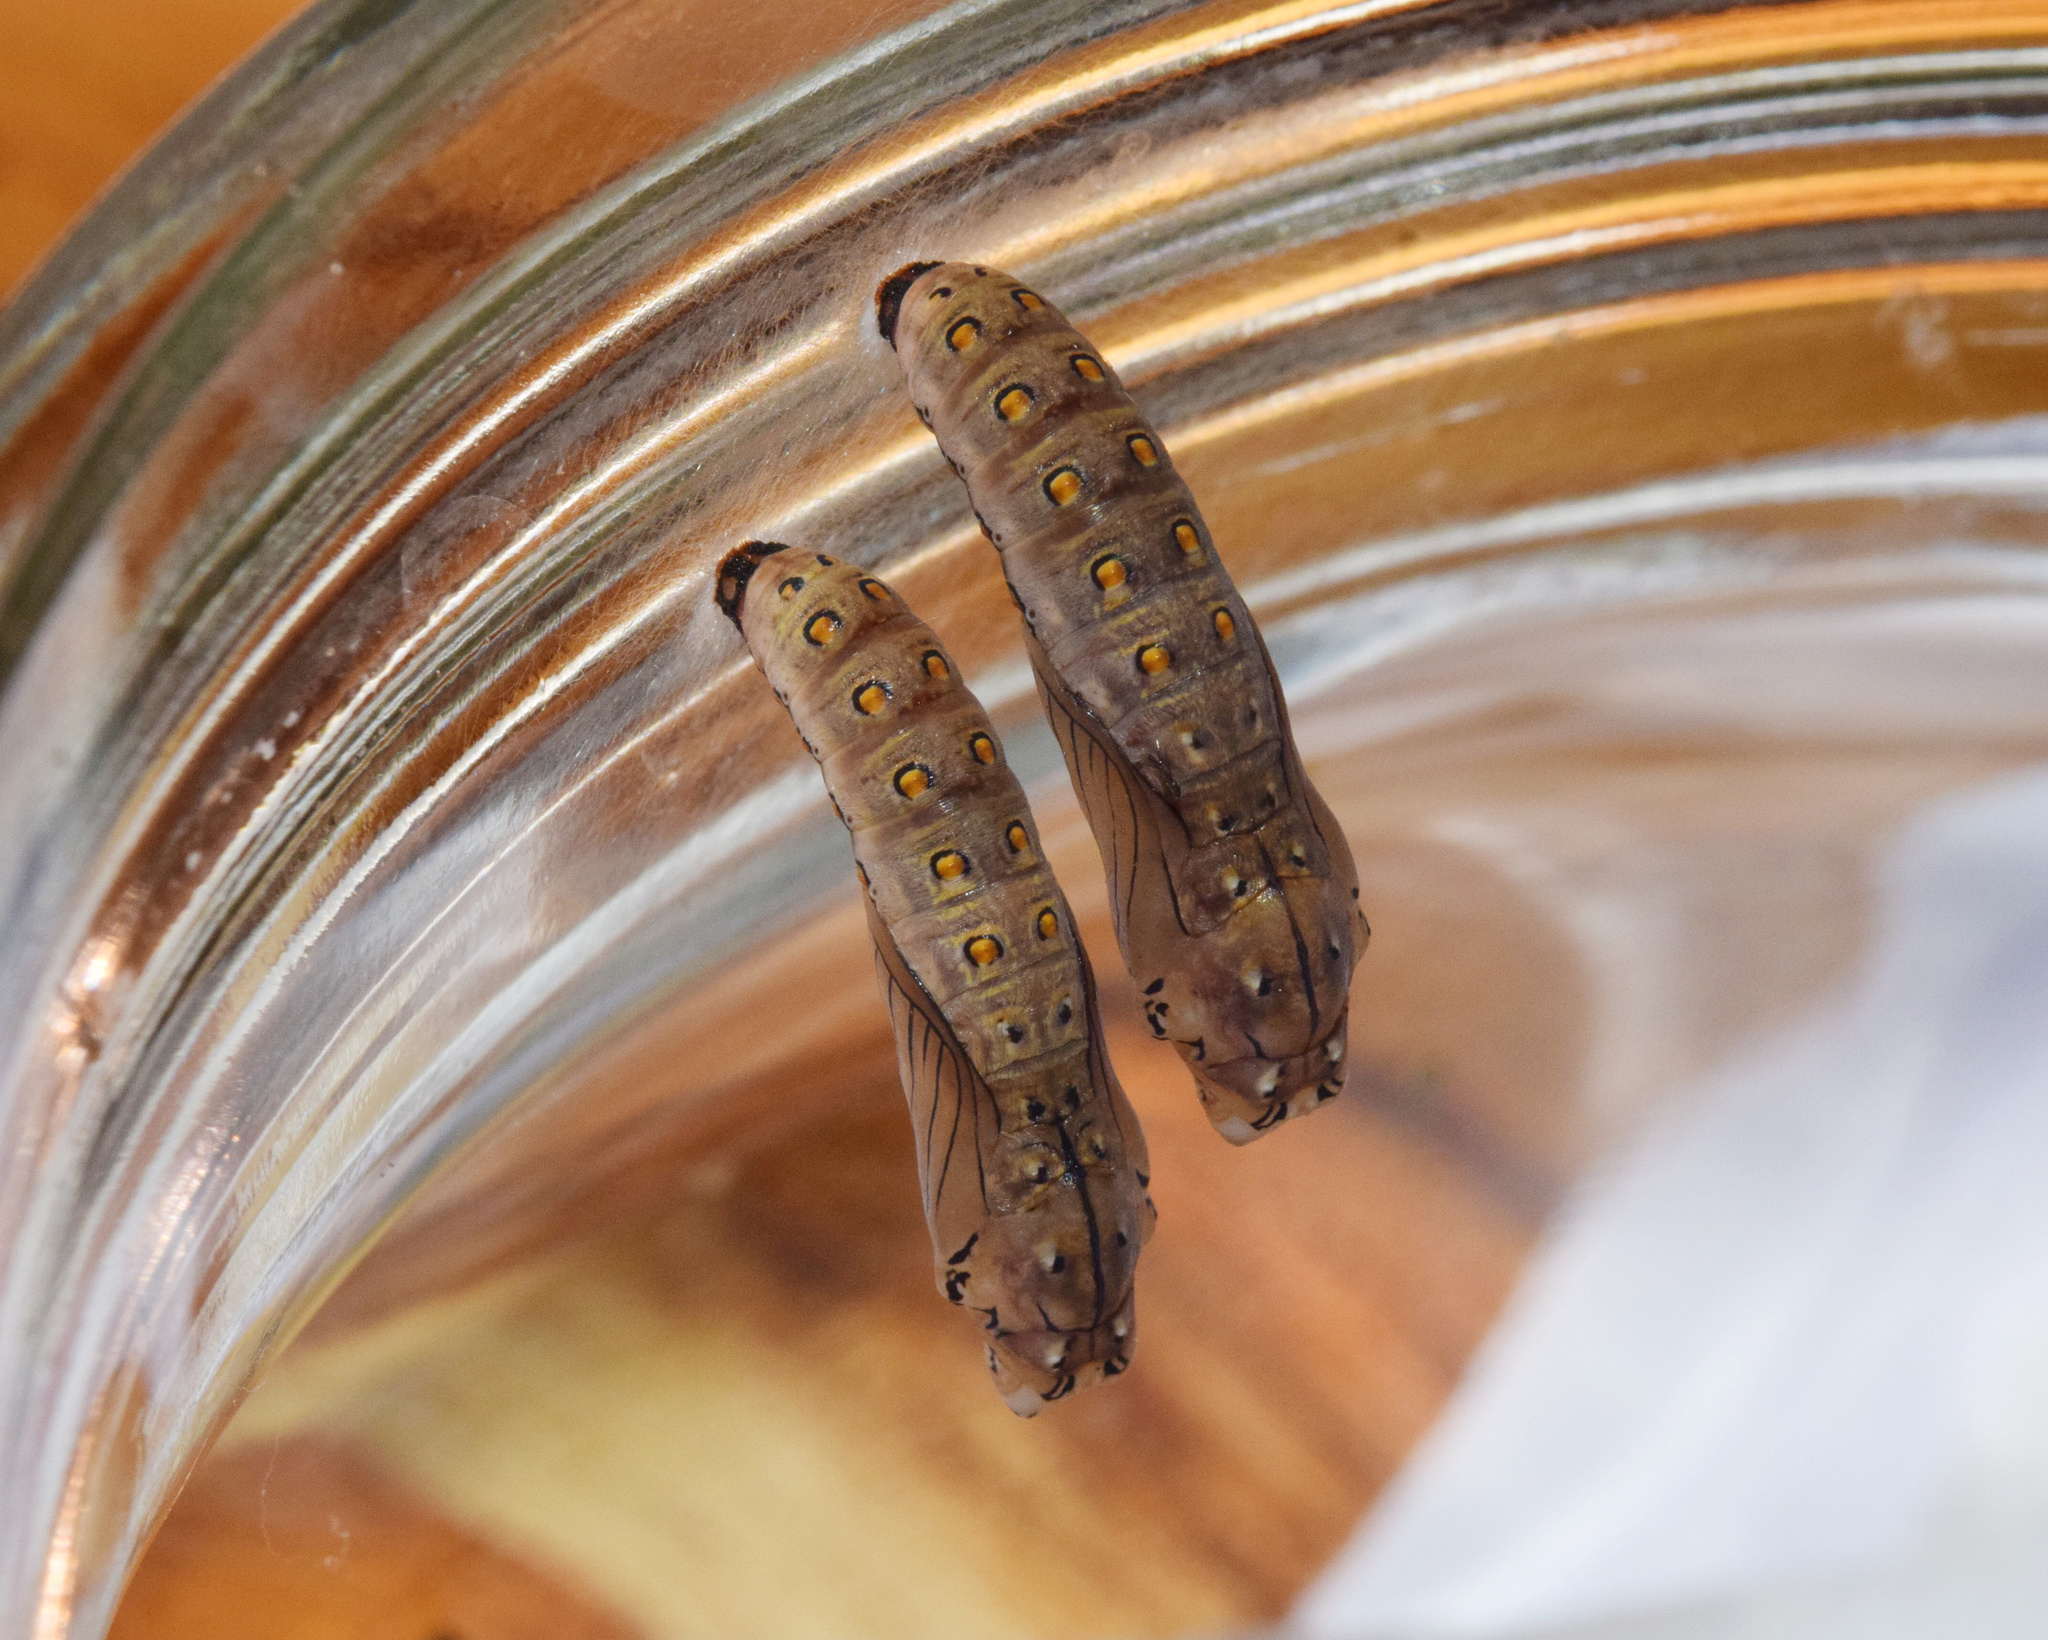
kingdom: Animalia
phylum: Arthropoda
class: Insecta
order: Lepidoptera
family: Nymphalidae
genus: Rubraea
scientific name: Rubraea
